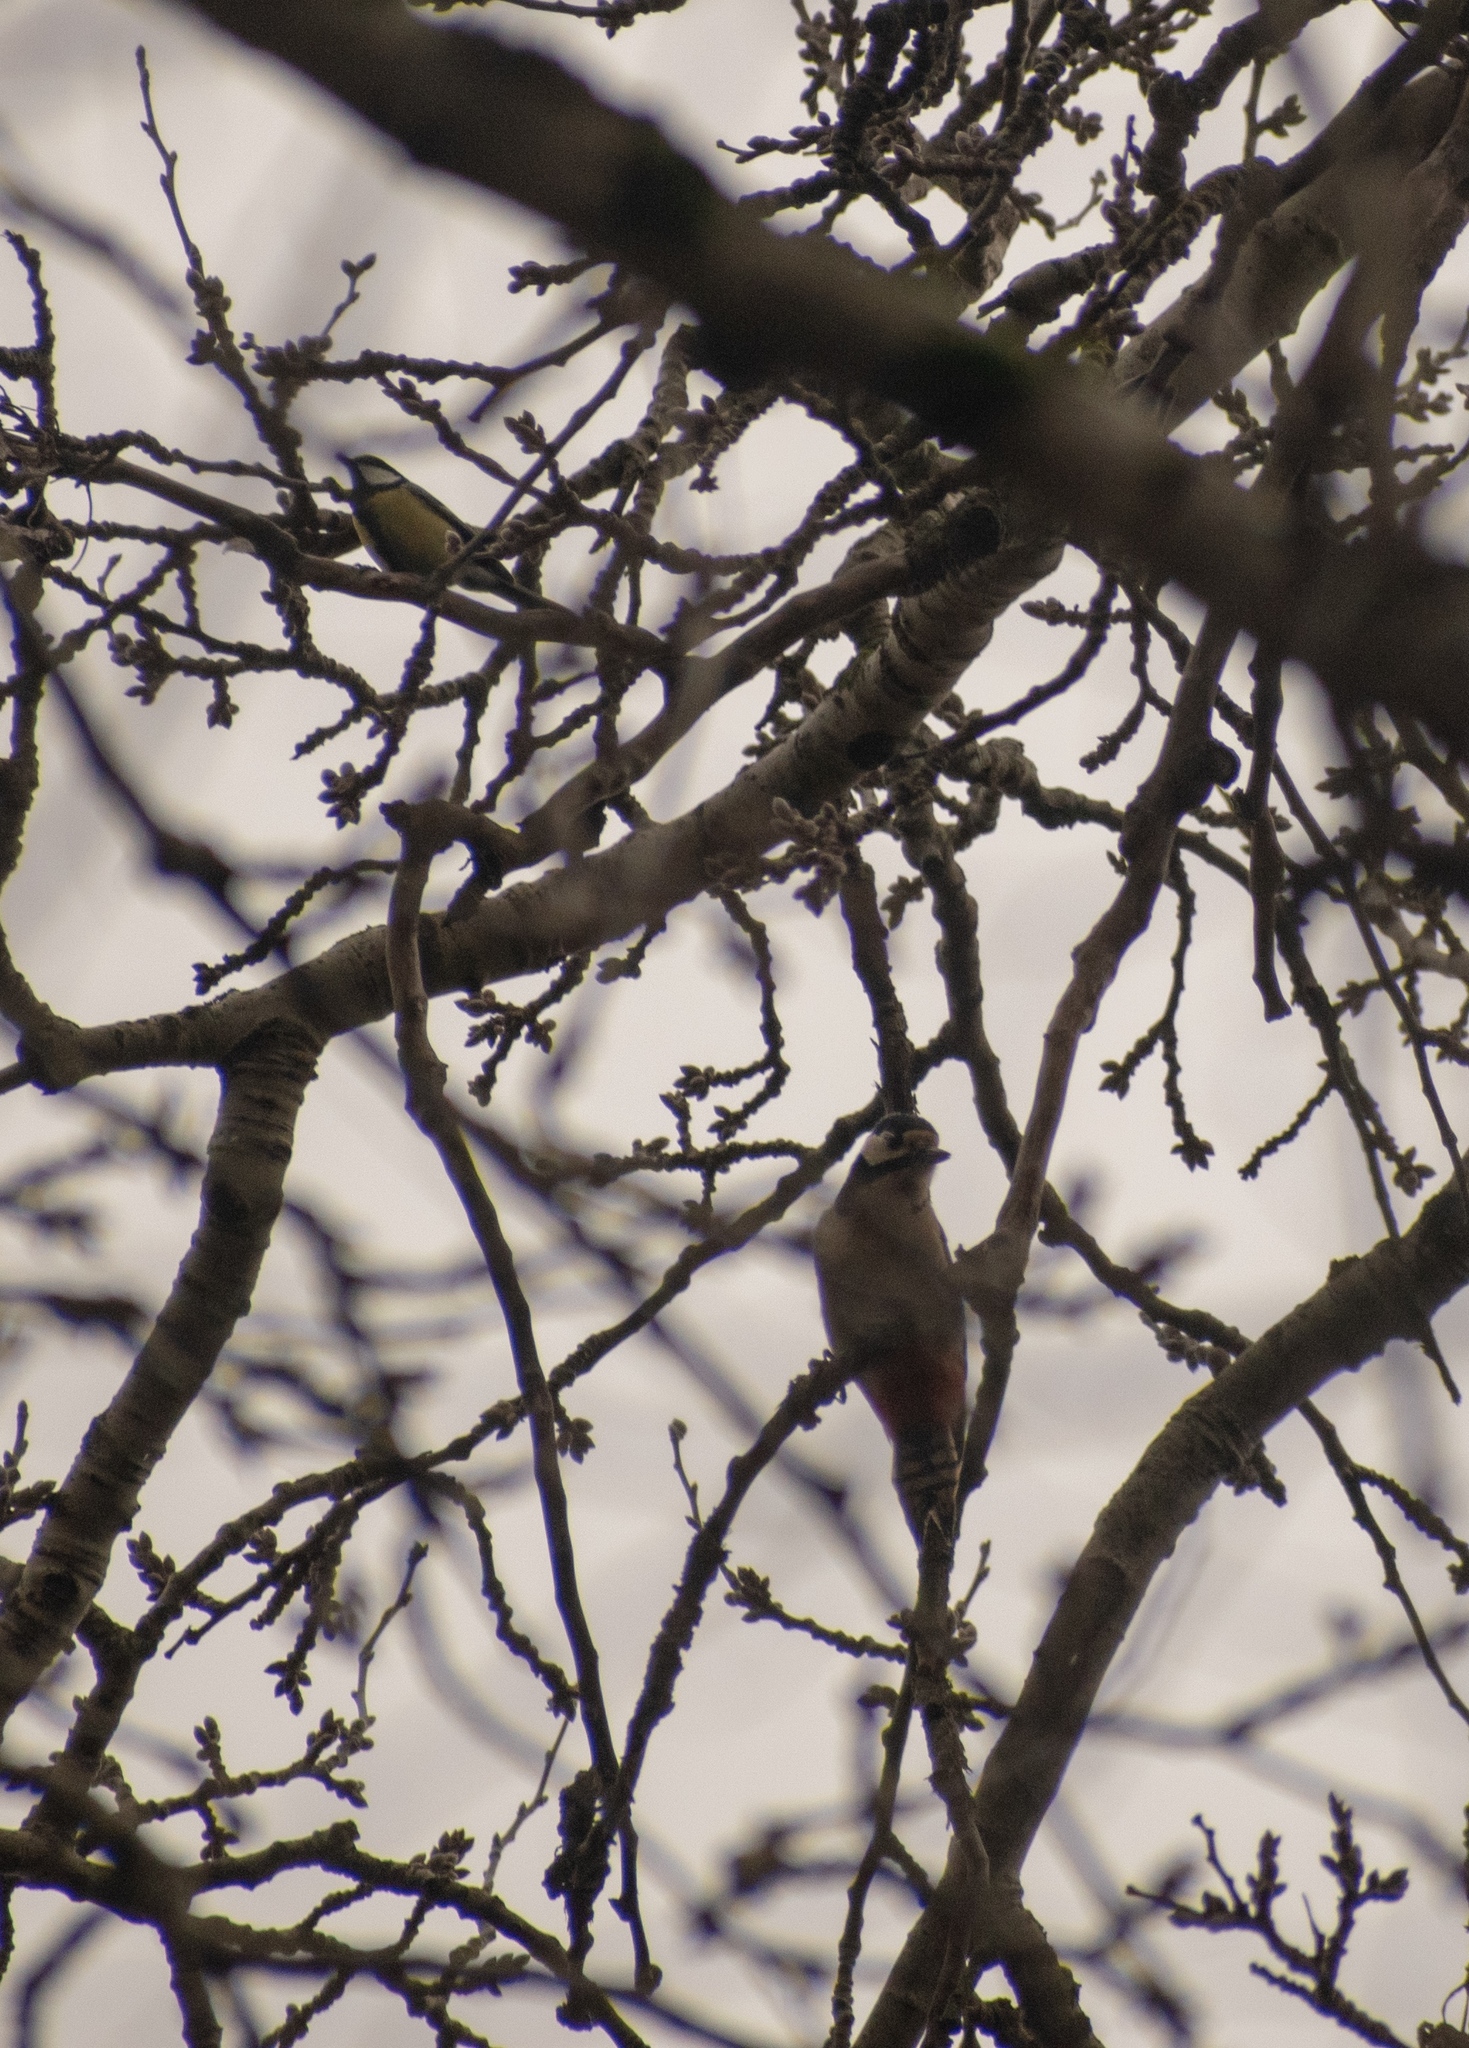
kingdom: Animalia
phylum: Chordata
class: Aves
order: Piciformes
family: Picidae
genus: Dendrocopos
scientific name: Dendrocopos major
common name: Great spotted woodpecker
